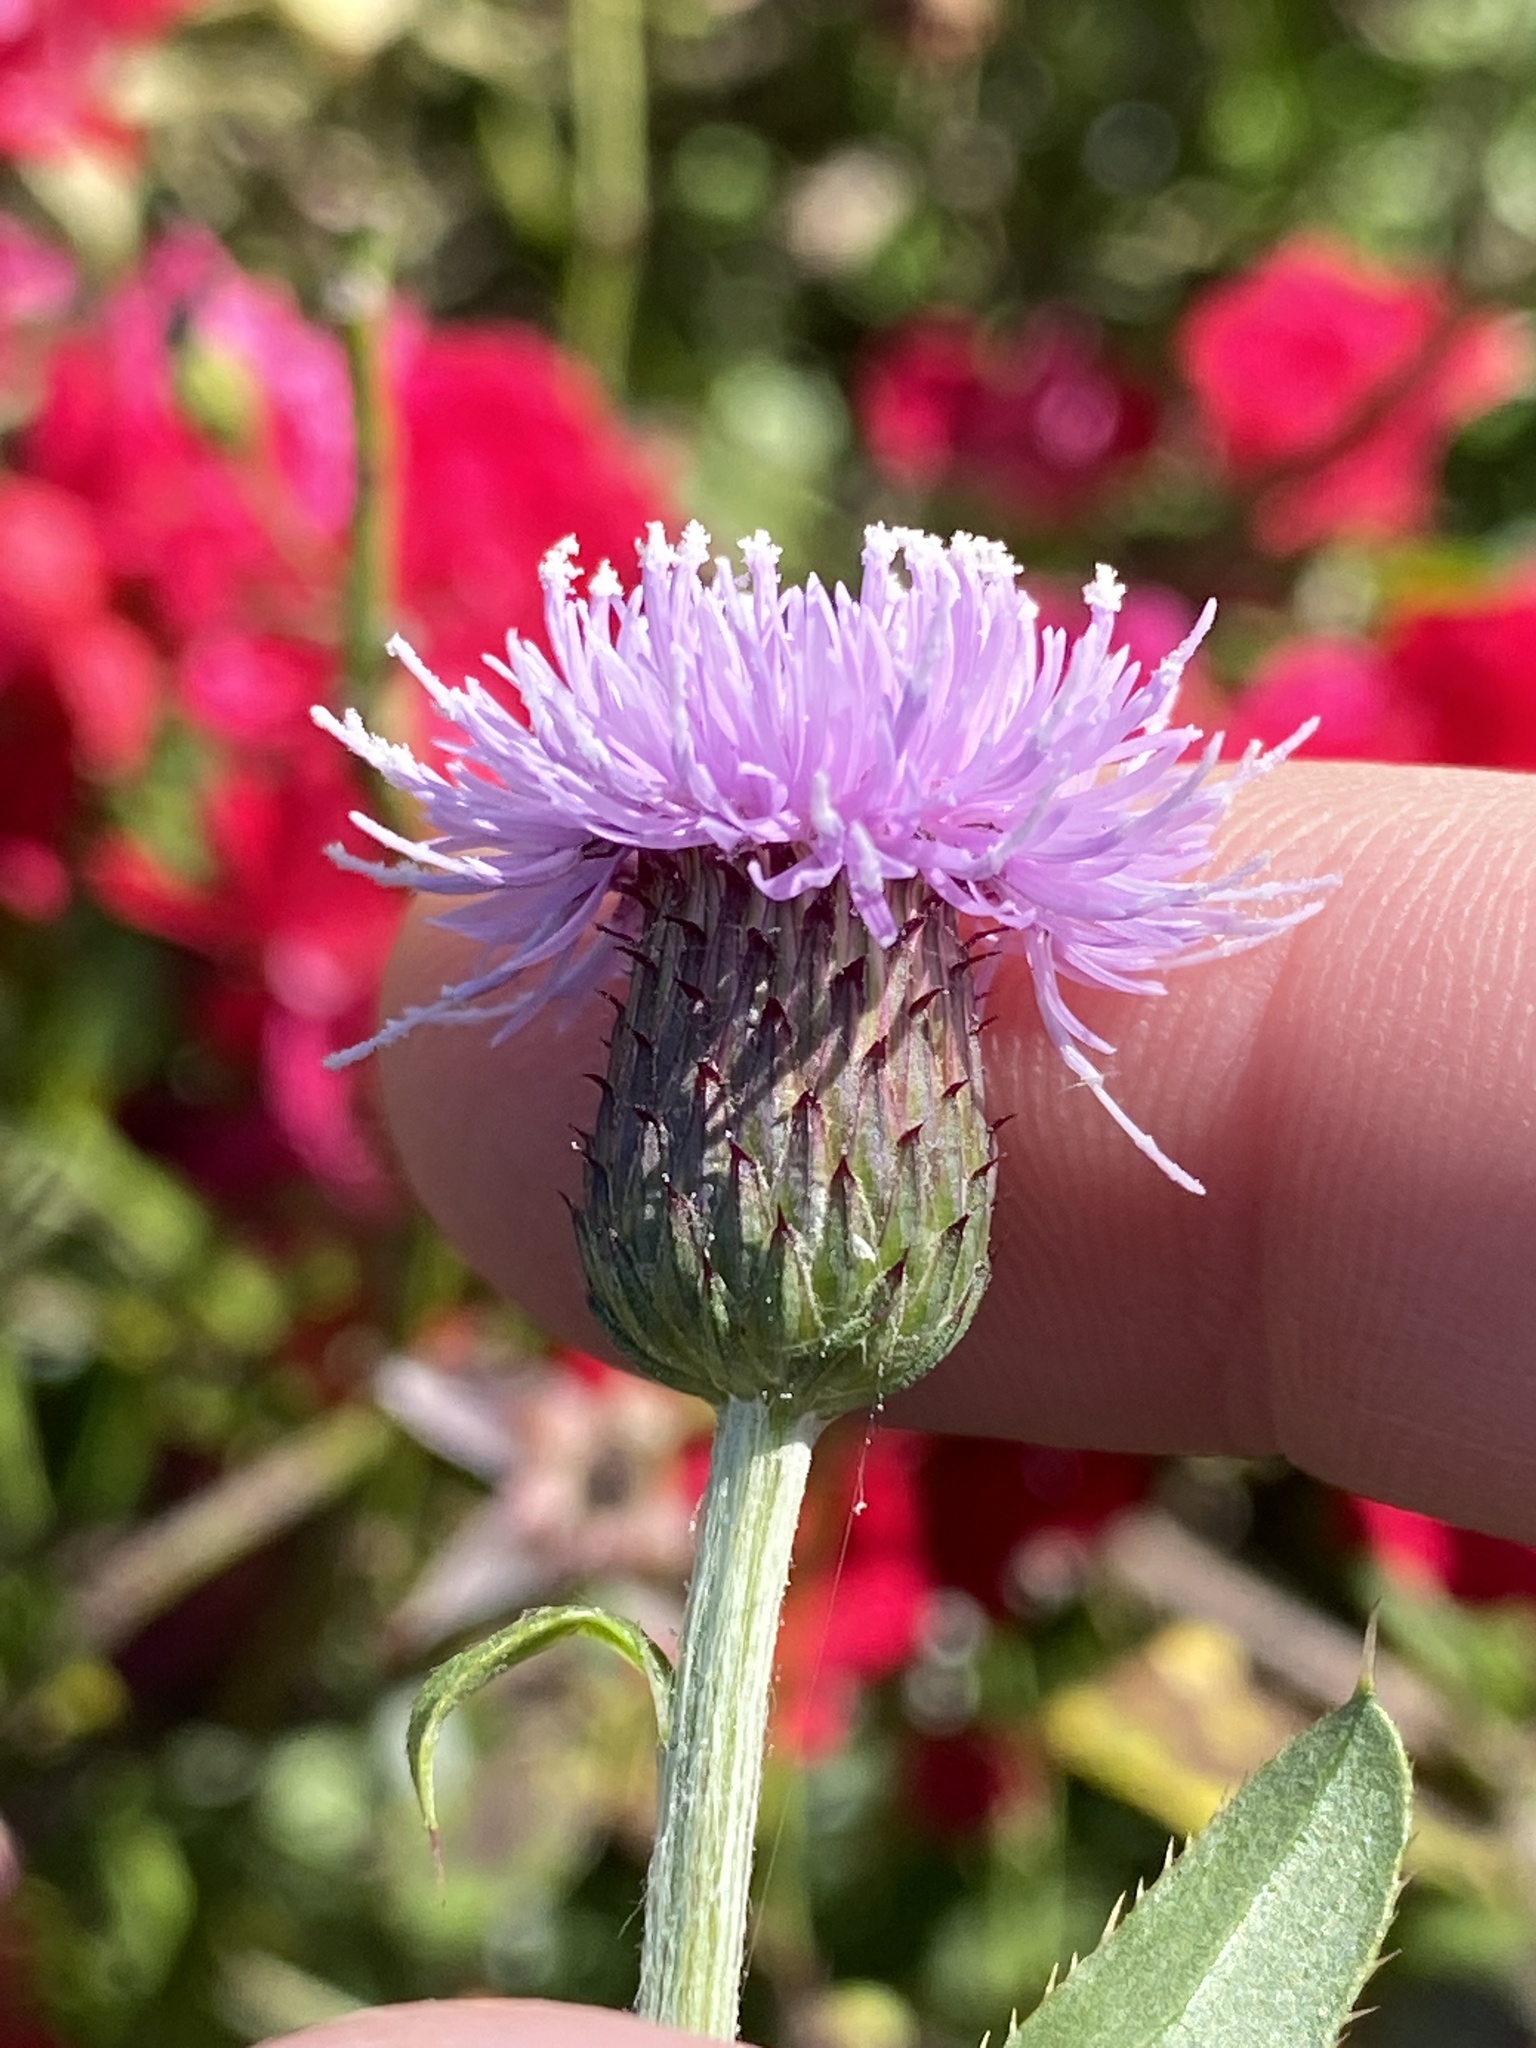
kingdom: Plantae
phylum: Tracheophyta
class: Magnoliopsida
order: Asterales
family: Asteraceae
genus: Cirsium
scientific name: Cirsium arvense
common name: Creeping thistle
